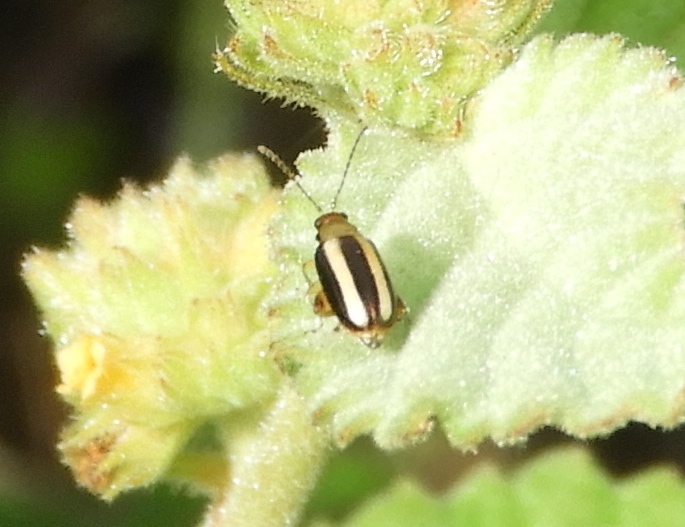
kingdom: Animalia
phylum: Arthropoda
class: Insecta
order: Coleoptera
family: Chrysomelidae
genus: Systena
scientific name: Systena
